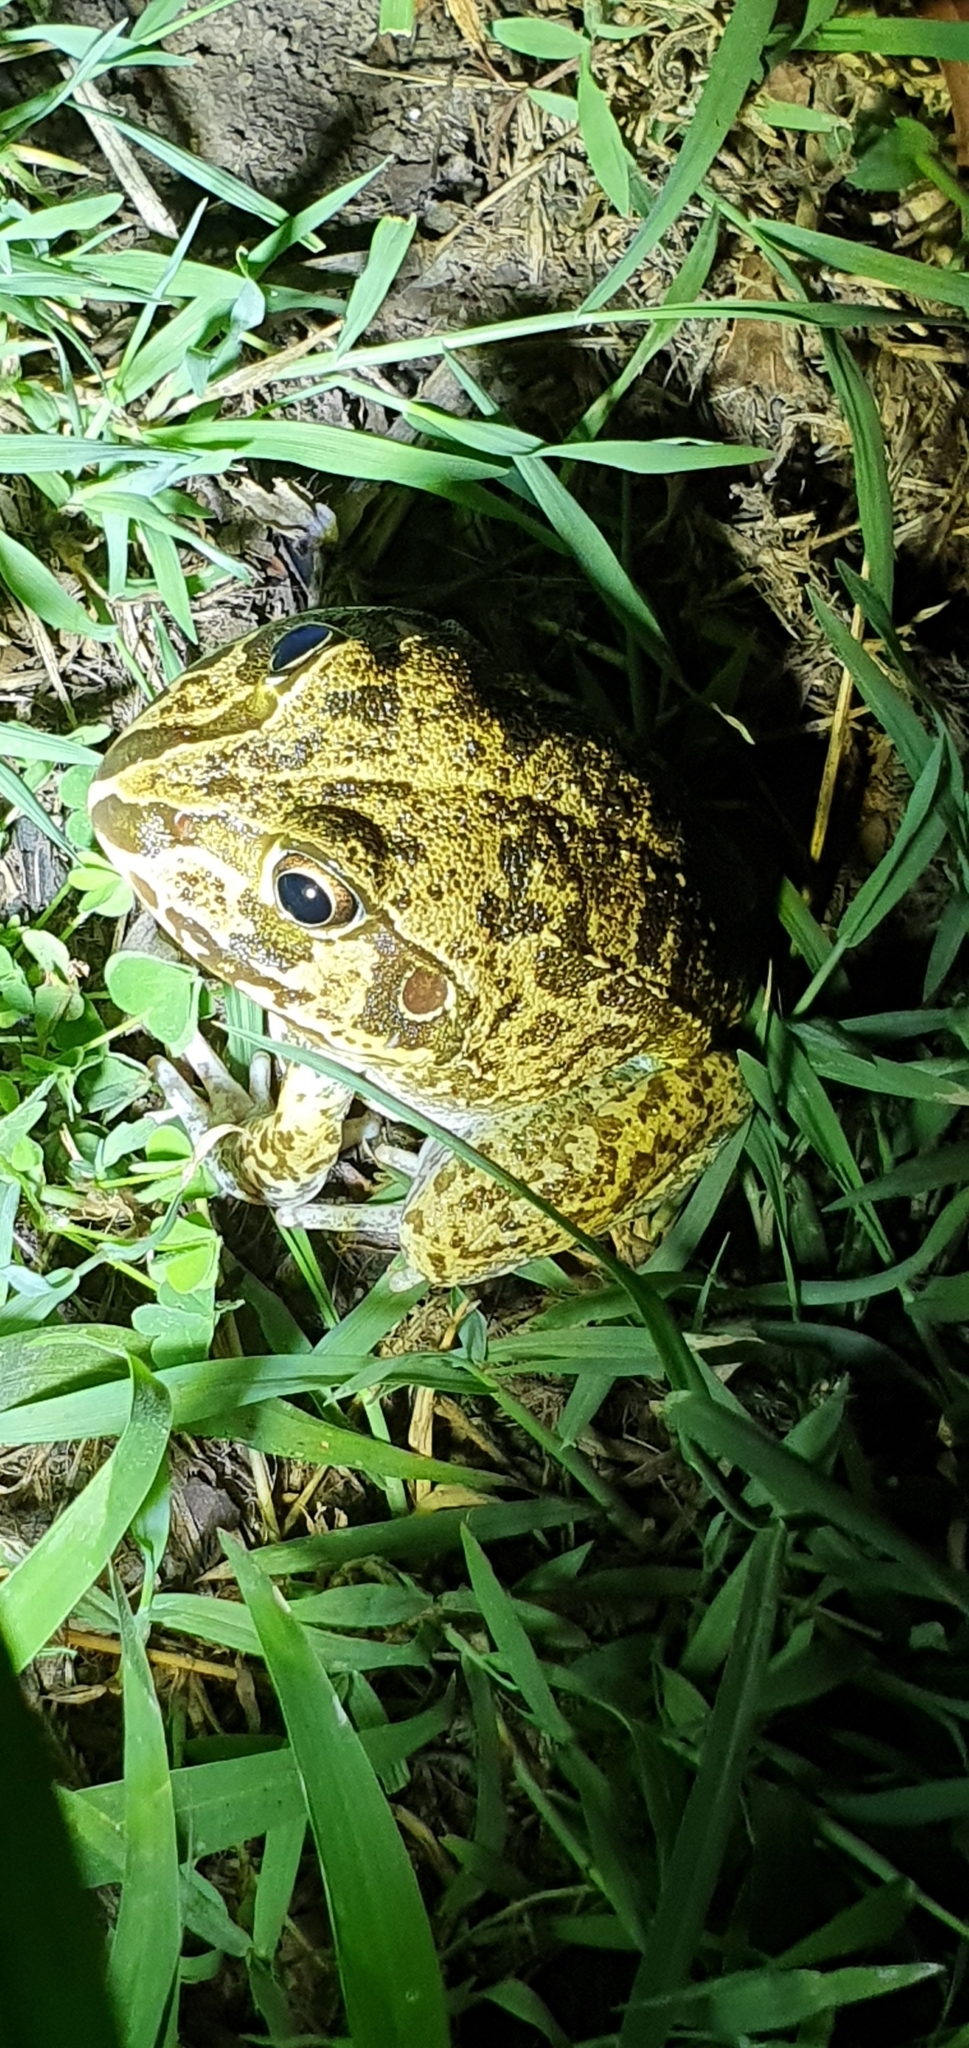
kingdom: Animalia
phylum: Chordata
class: Amphibia
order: Anura
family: Pelodryadidae
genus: Ranoidea
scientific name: Ranoidea novaehollandiae
